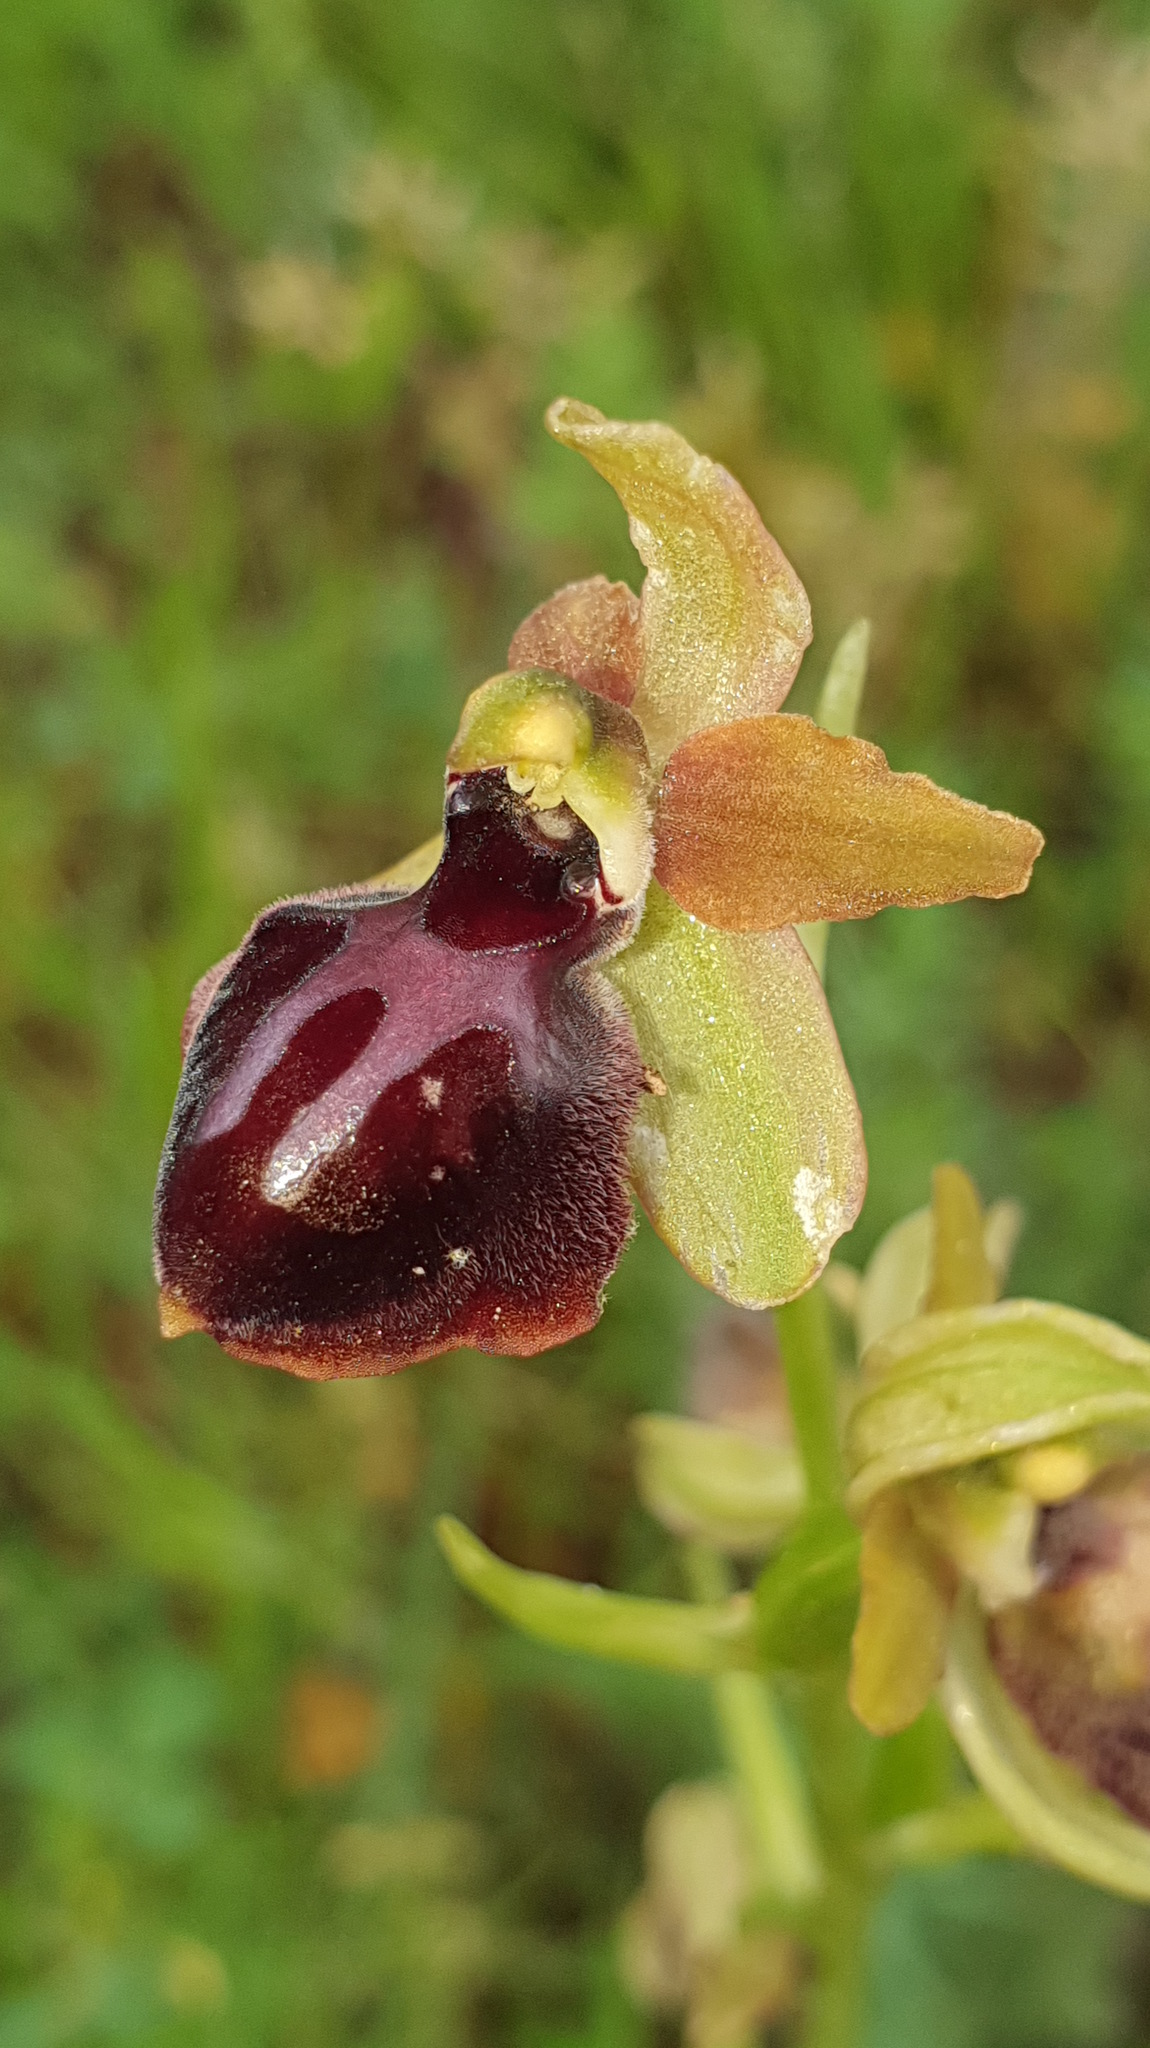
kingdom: Plantae
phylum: Tracheophyta
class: Liliopsida
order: Asparagales
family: Orchidaceae
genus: Ophrys
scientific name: Ophrys sphegodes
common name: Early spider-orchid
